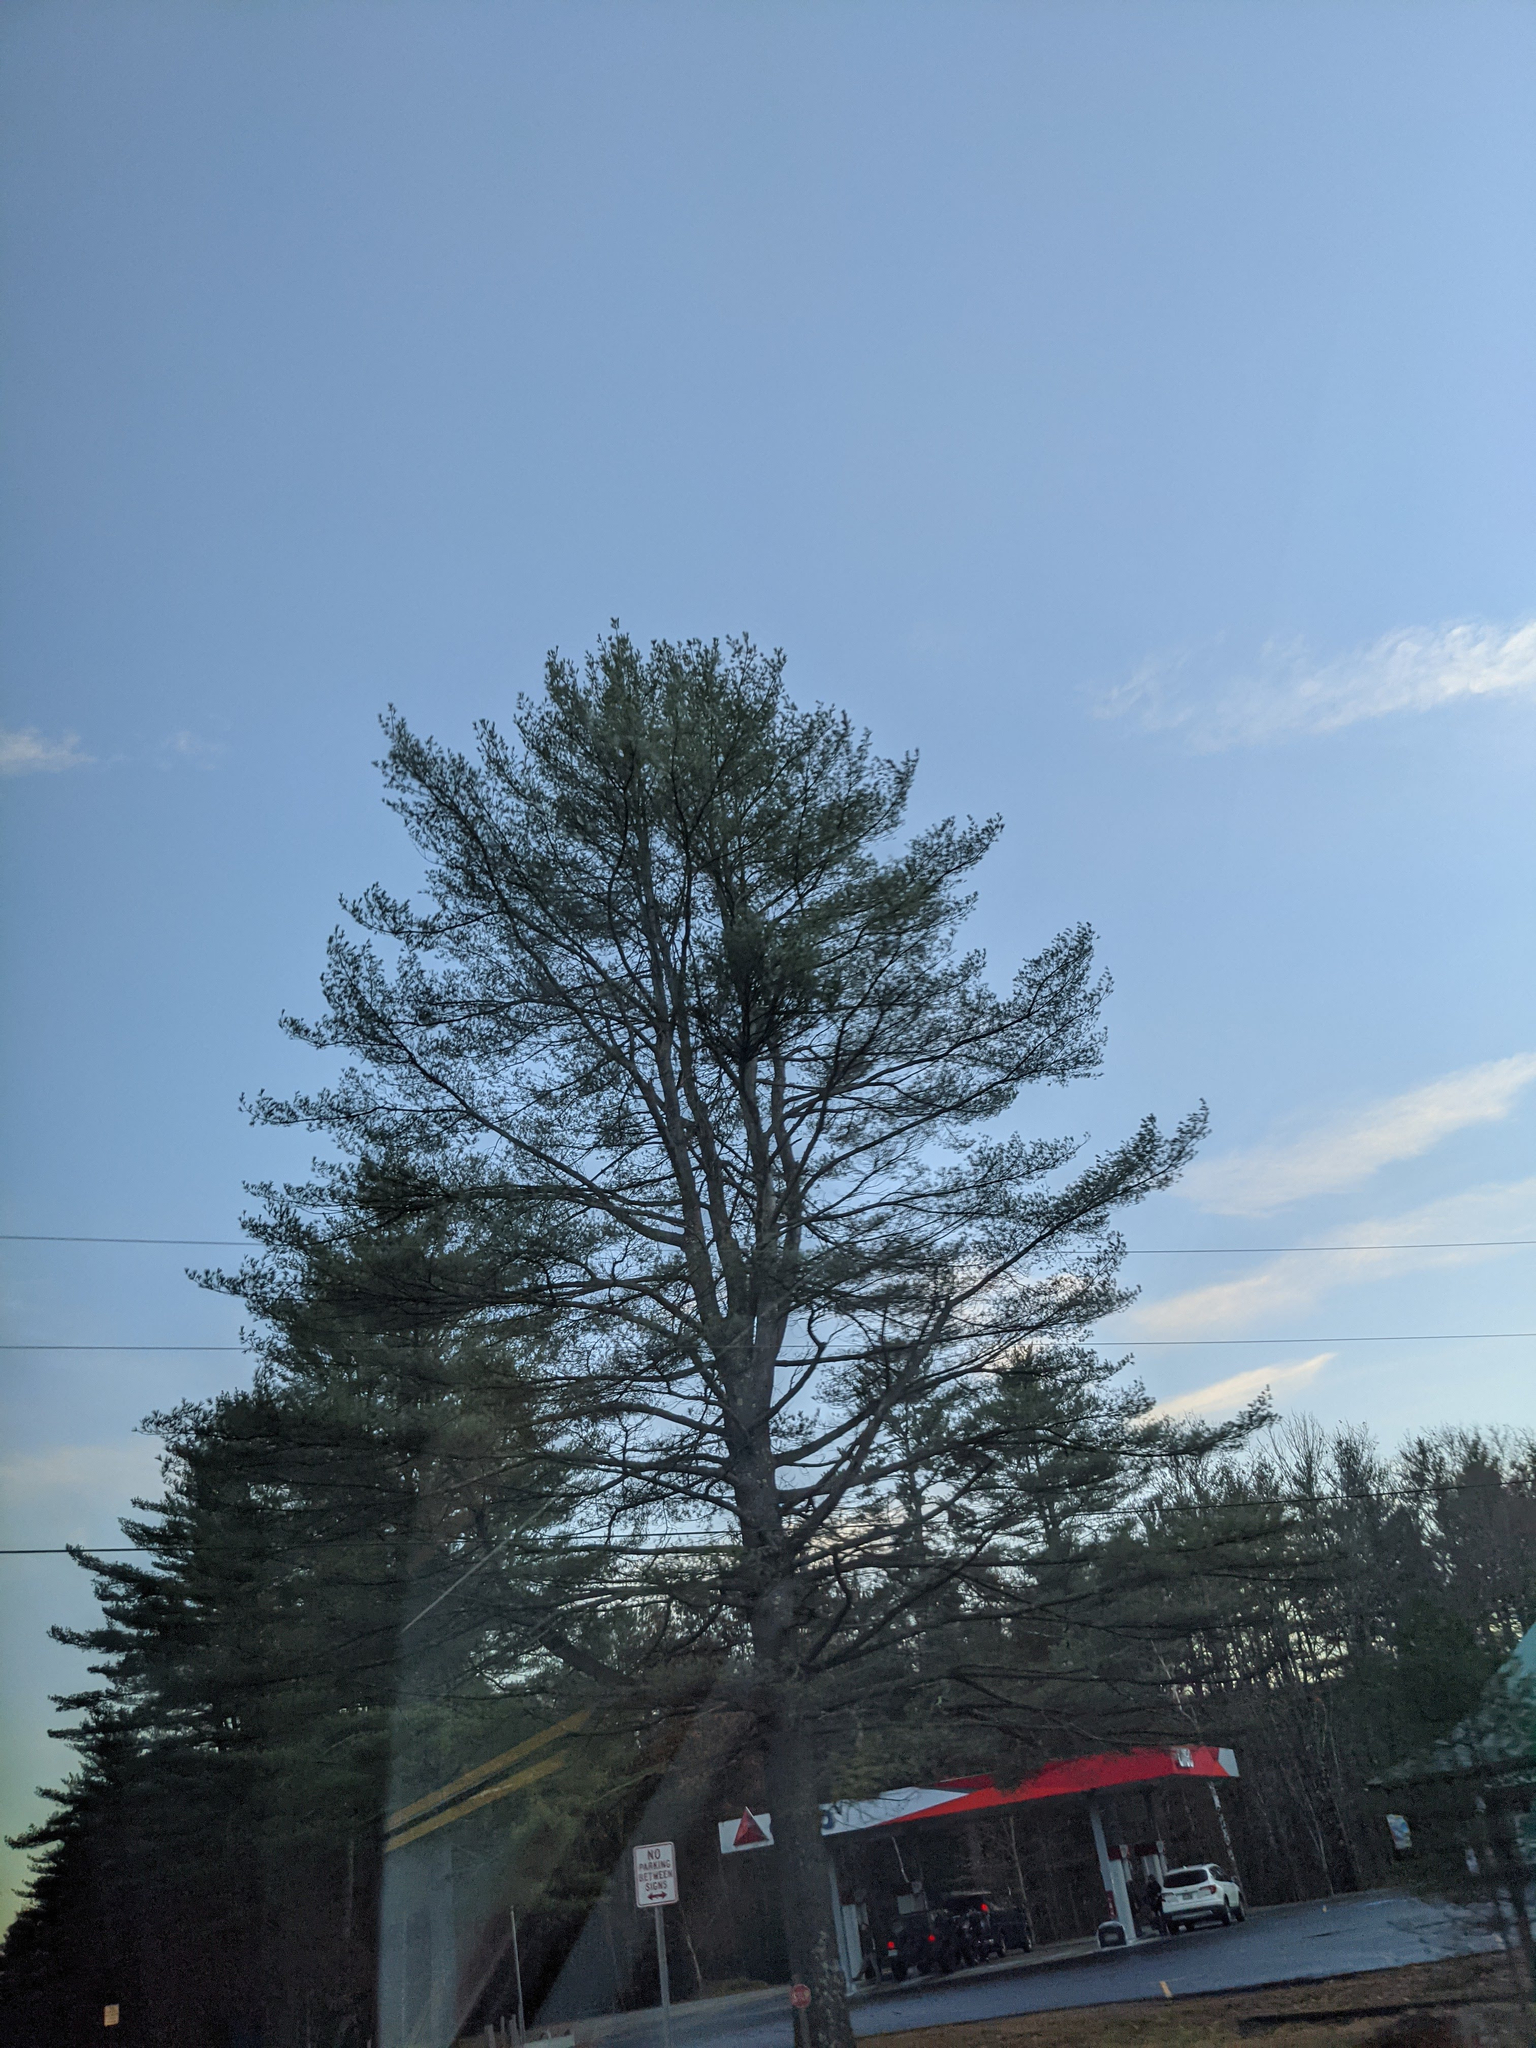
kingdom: Plantae
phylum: Tracheophyta
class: Pinopsida
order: Pinales
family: Pinaceae
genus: Pinus
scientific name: Pinus strobus
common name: Weymouth pine
